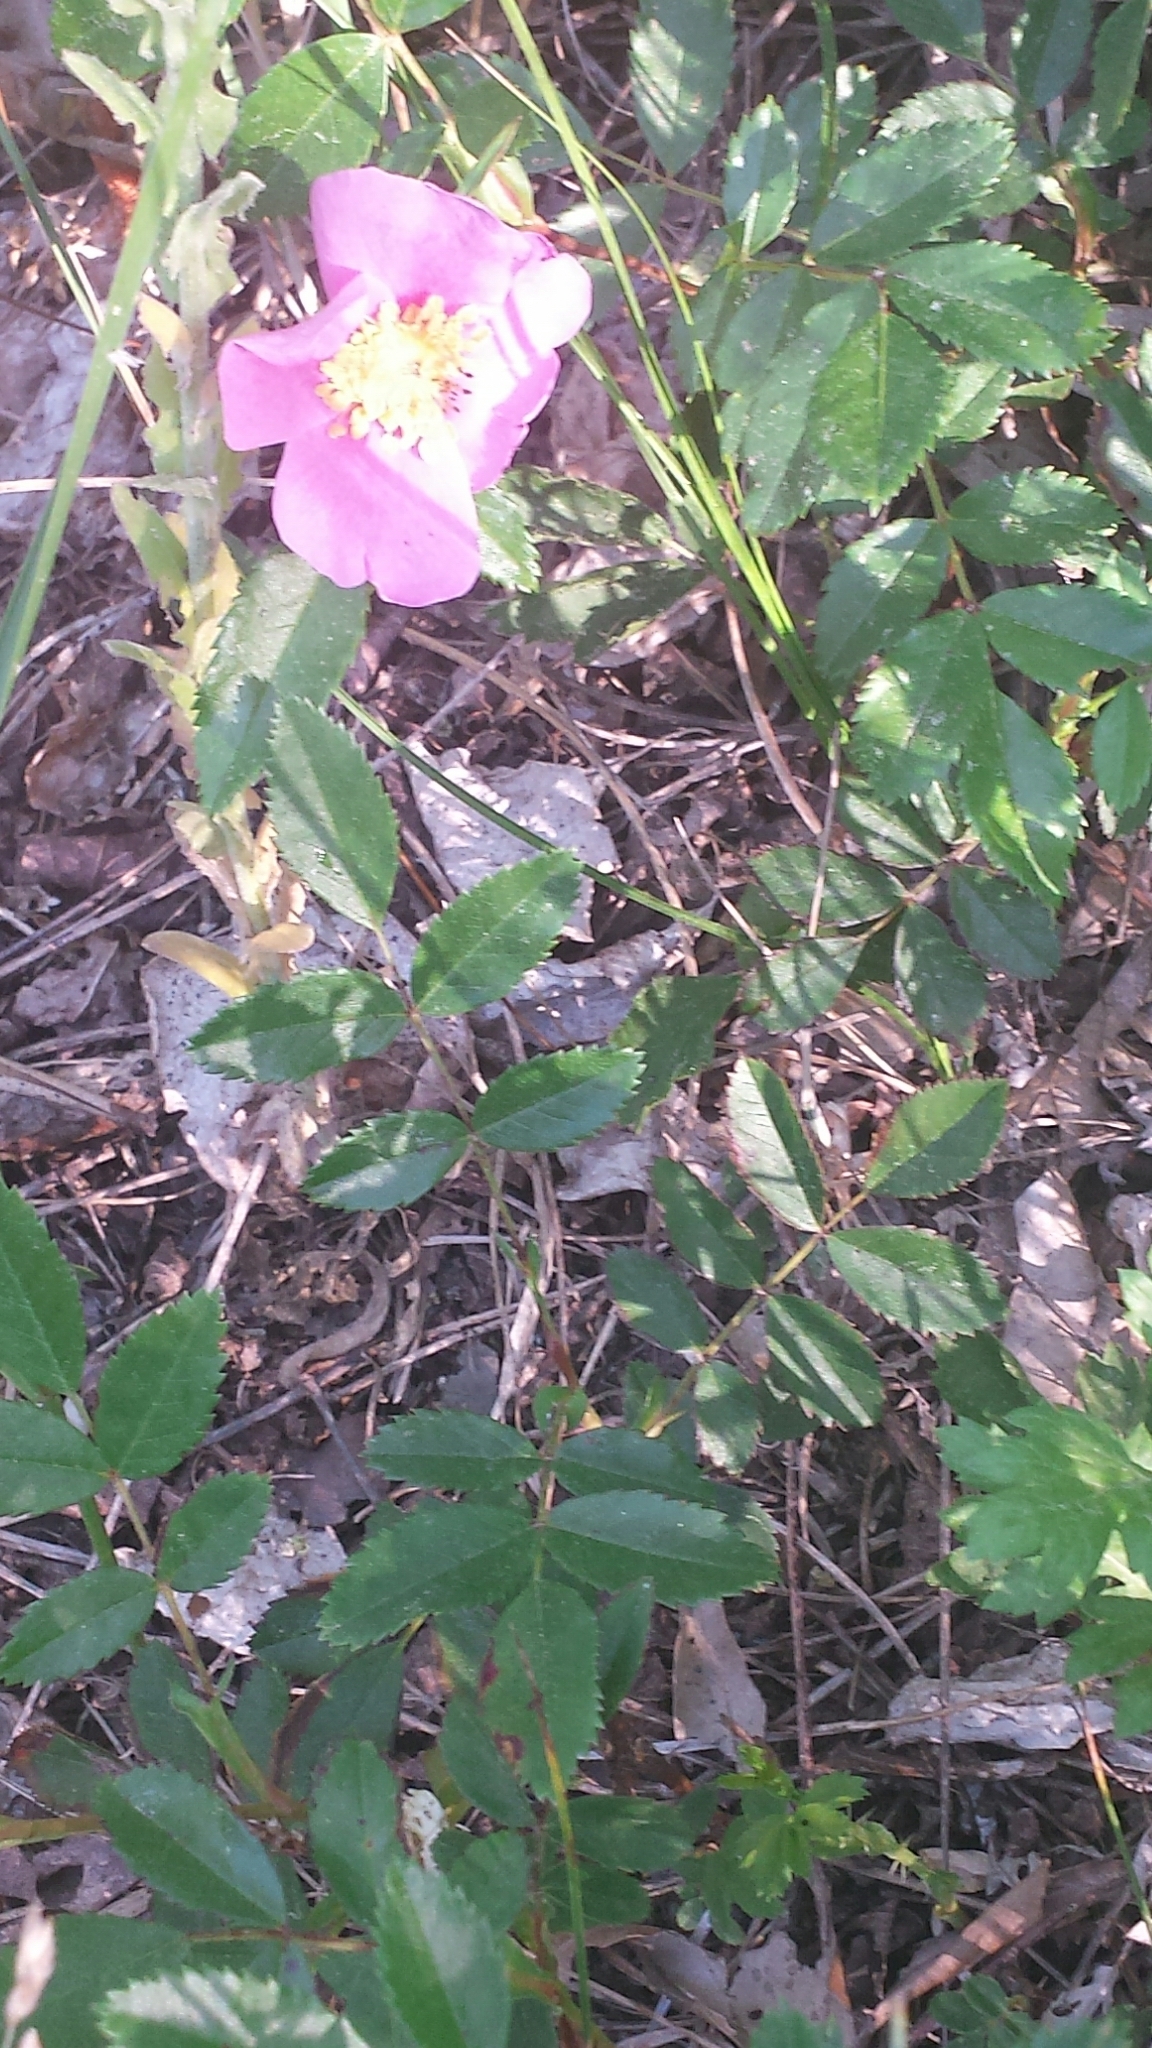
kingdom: Plantae
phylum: Tracheophyta
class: Magnoliopsida
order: Rosales
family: Rosaceae
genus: Rosa
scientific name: Rosa carolina
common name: Pasture rose
